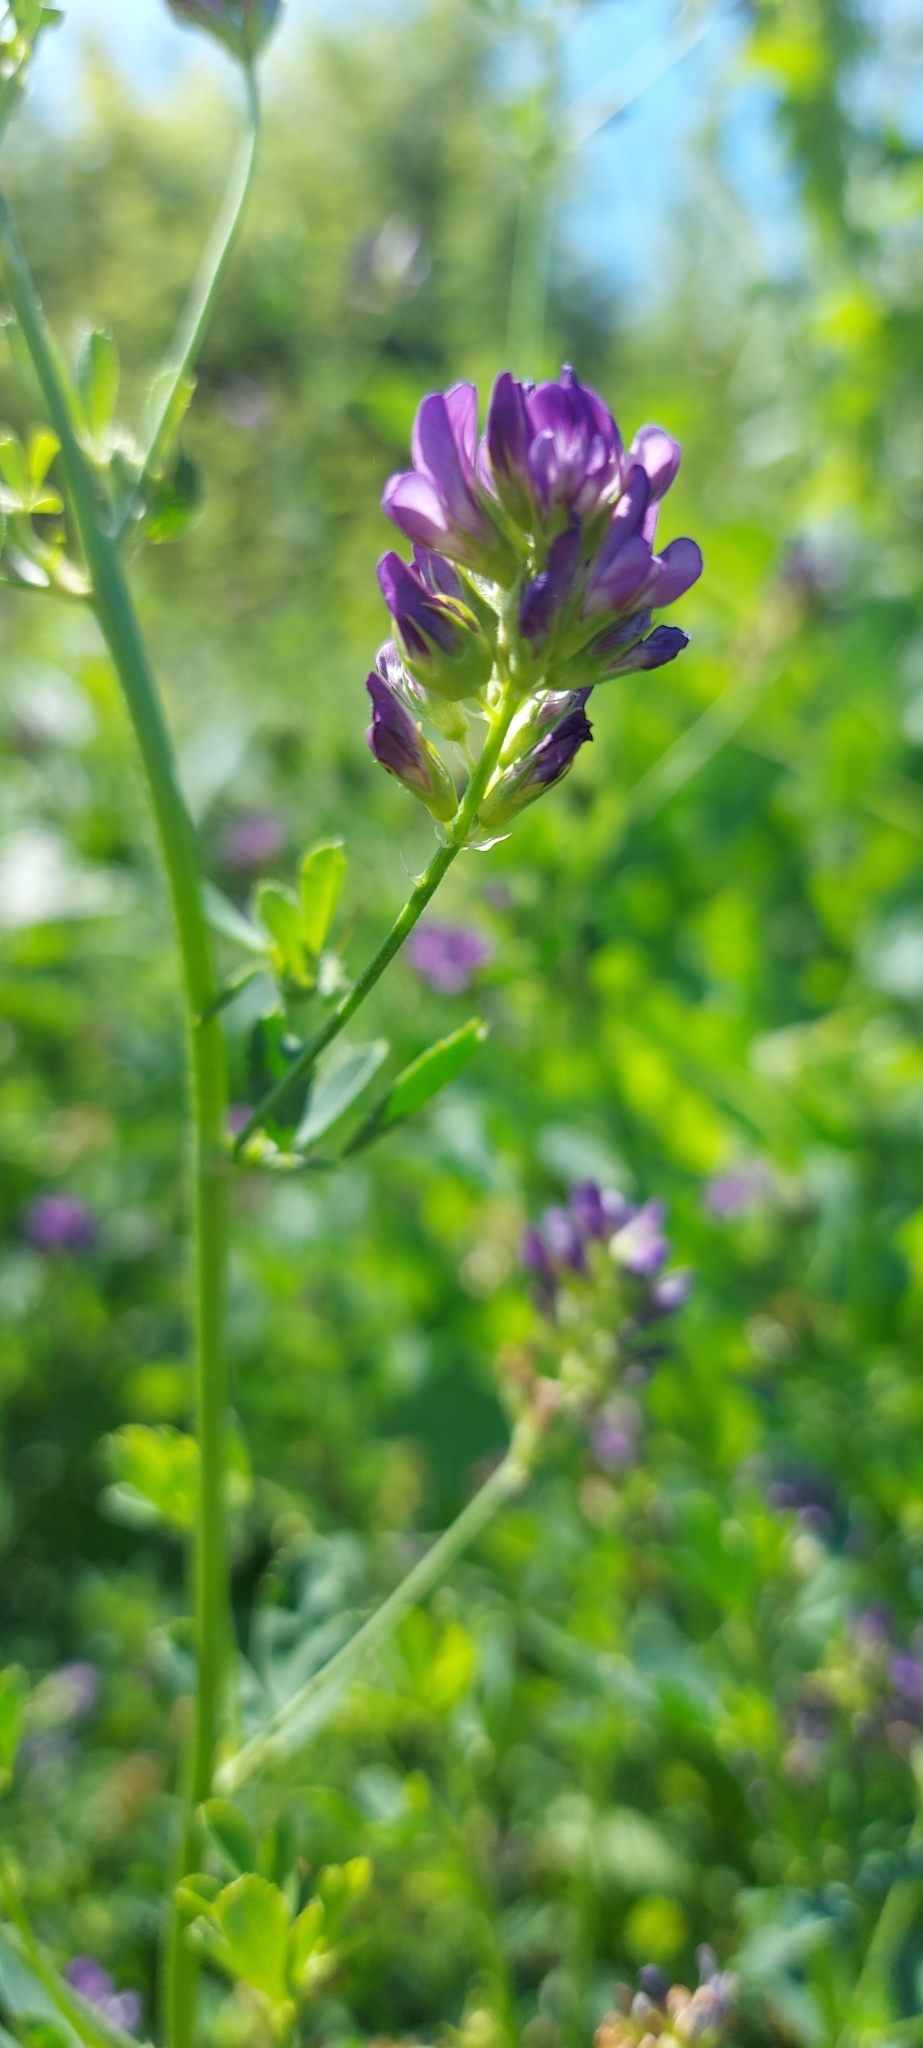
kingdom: Plantae
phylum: Tracheophyta
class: Magnoliopsida
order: Fabales
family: Fabaceae
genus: Medicago
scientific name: Medicago sativa
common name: Alfalfa
